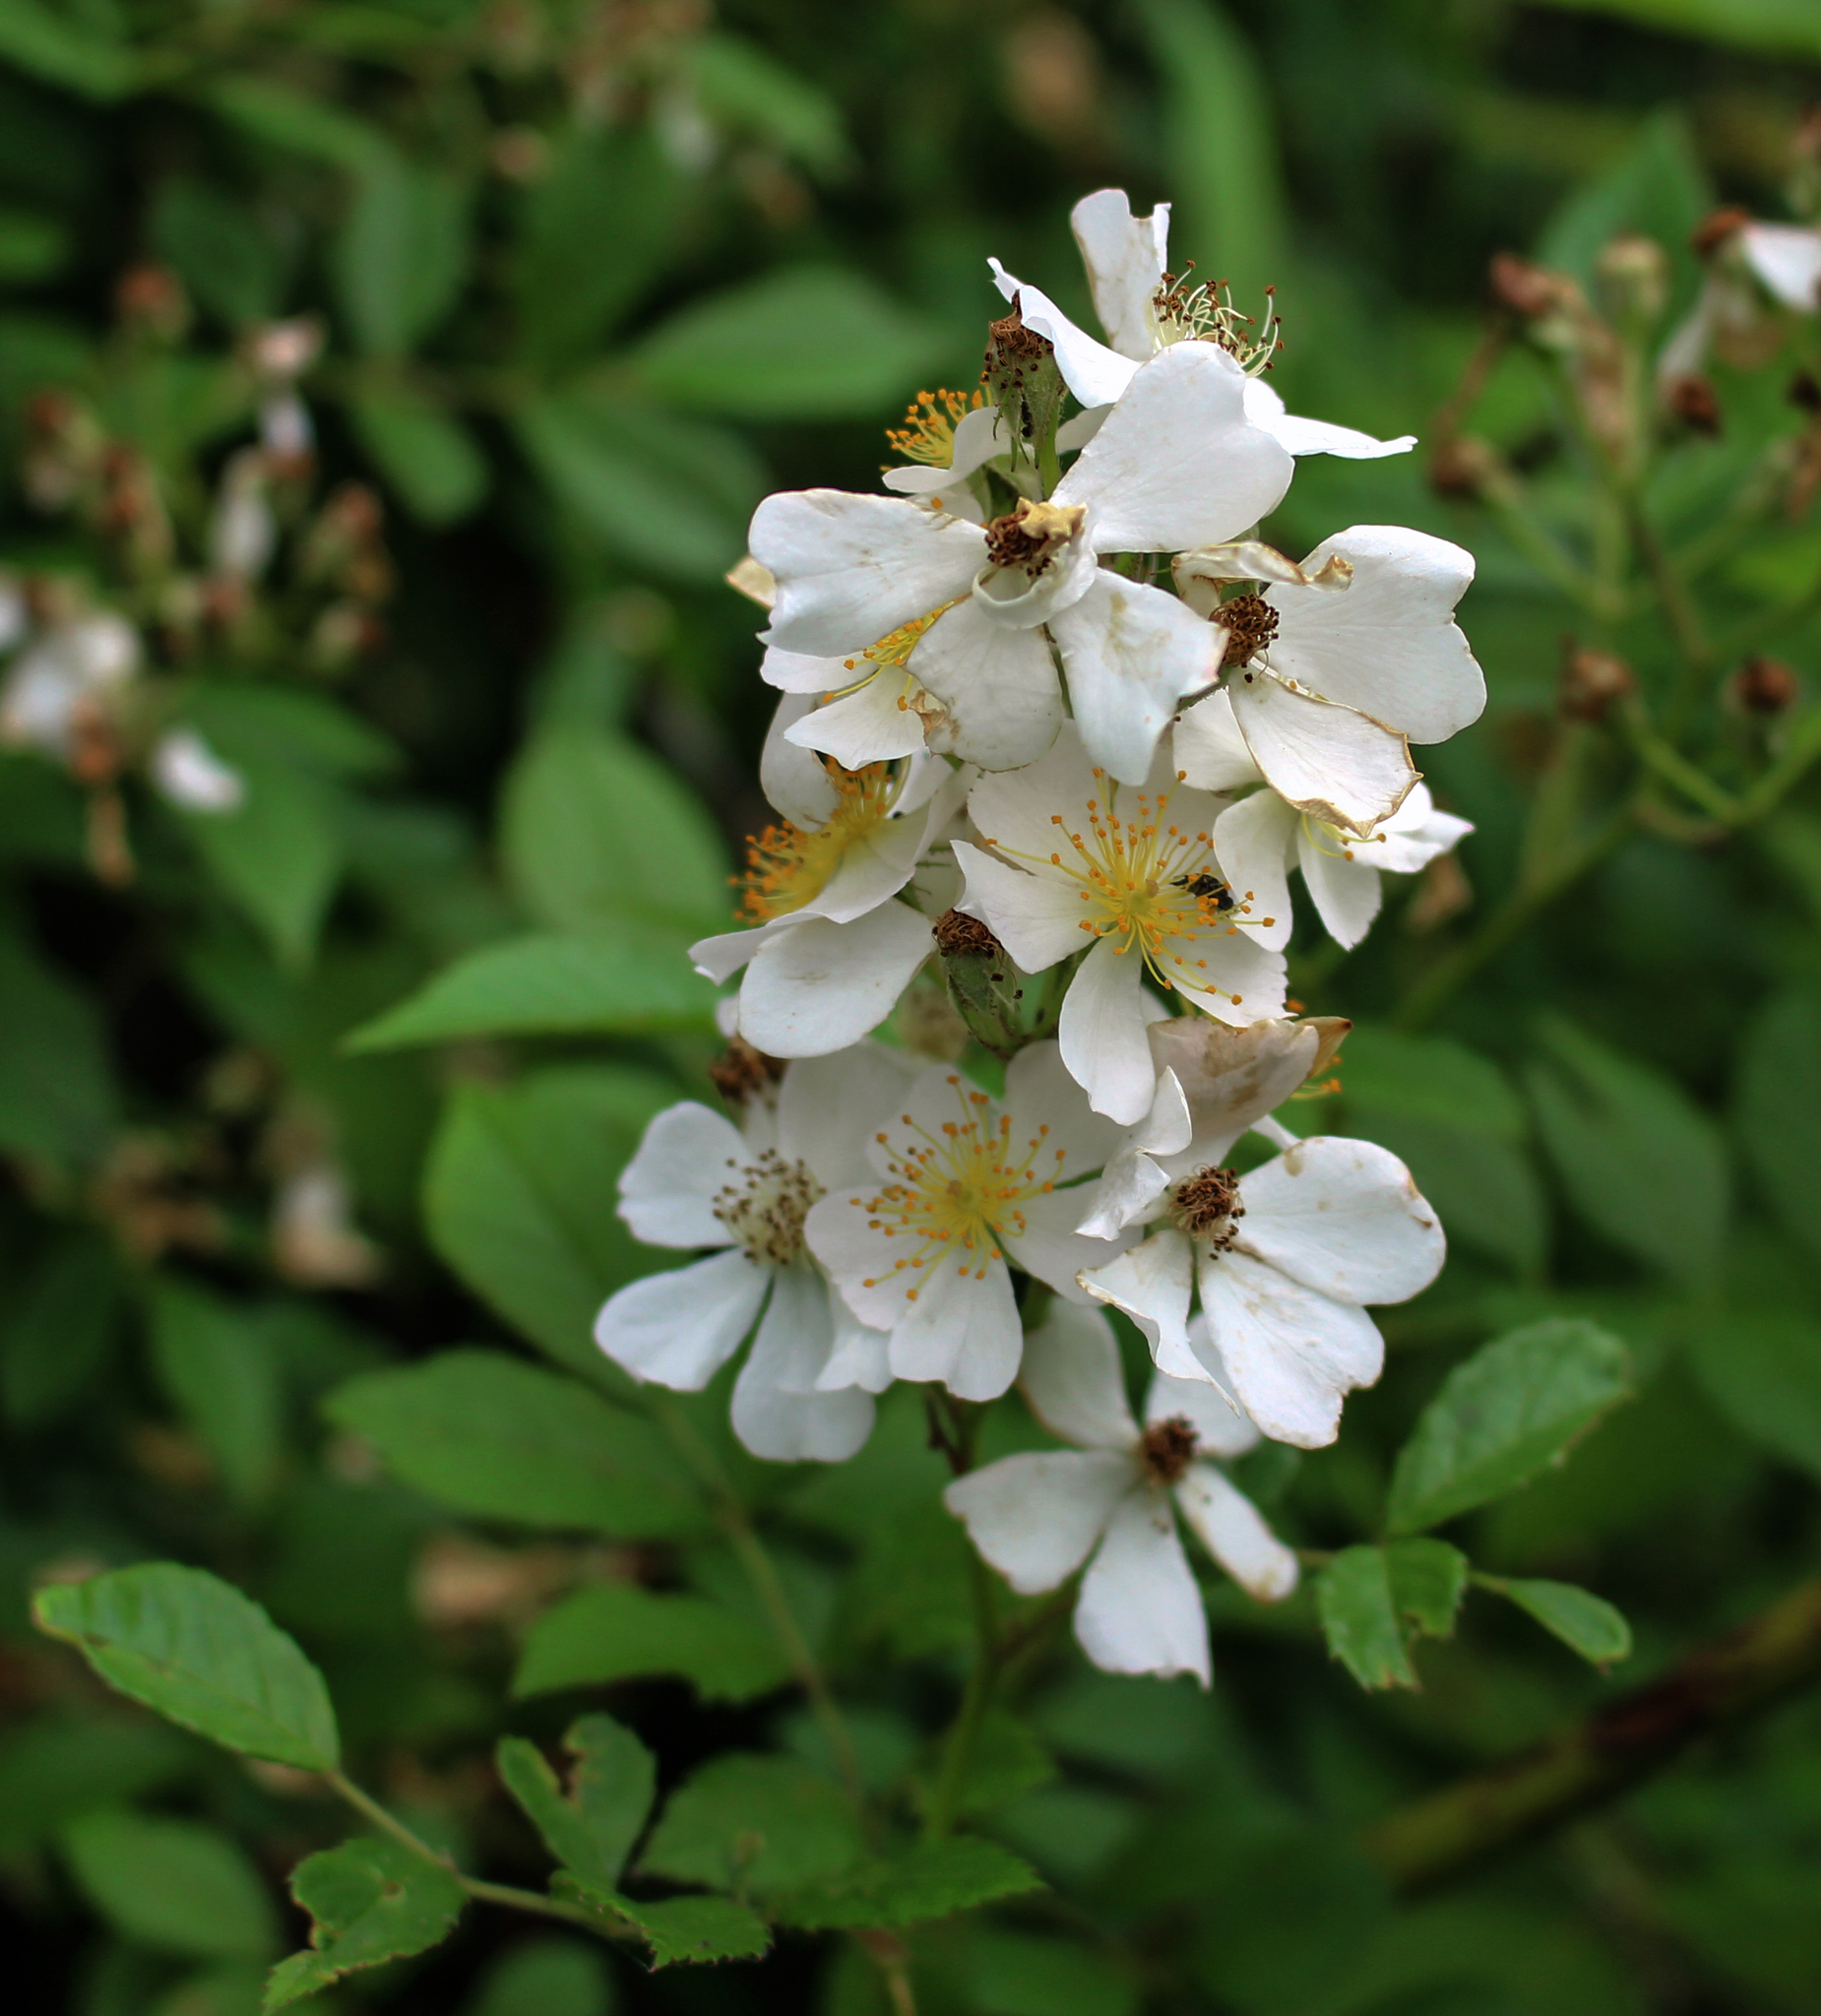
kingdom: Plantae
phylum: Tracheophyta
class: Magnoliopsida
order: Rosales
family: Rosaceae
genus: Rosa
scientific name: Rosa multiflora
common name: Multiflora rose
